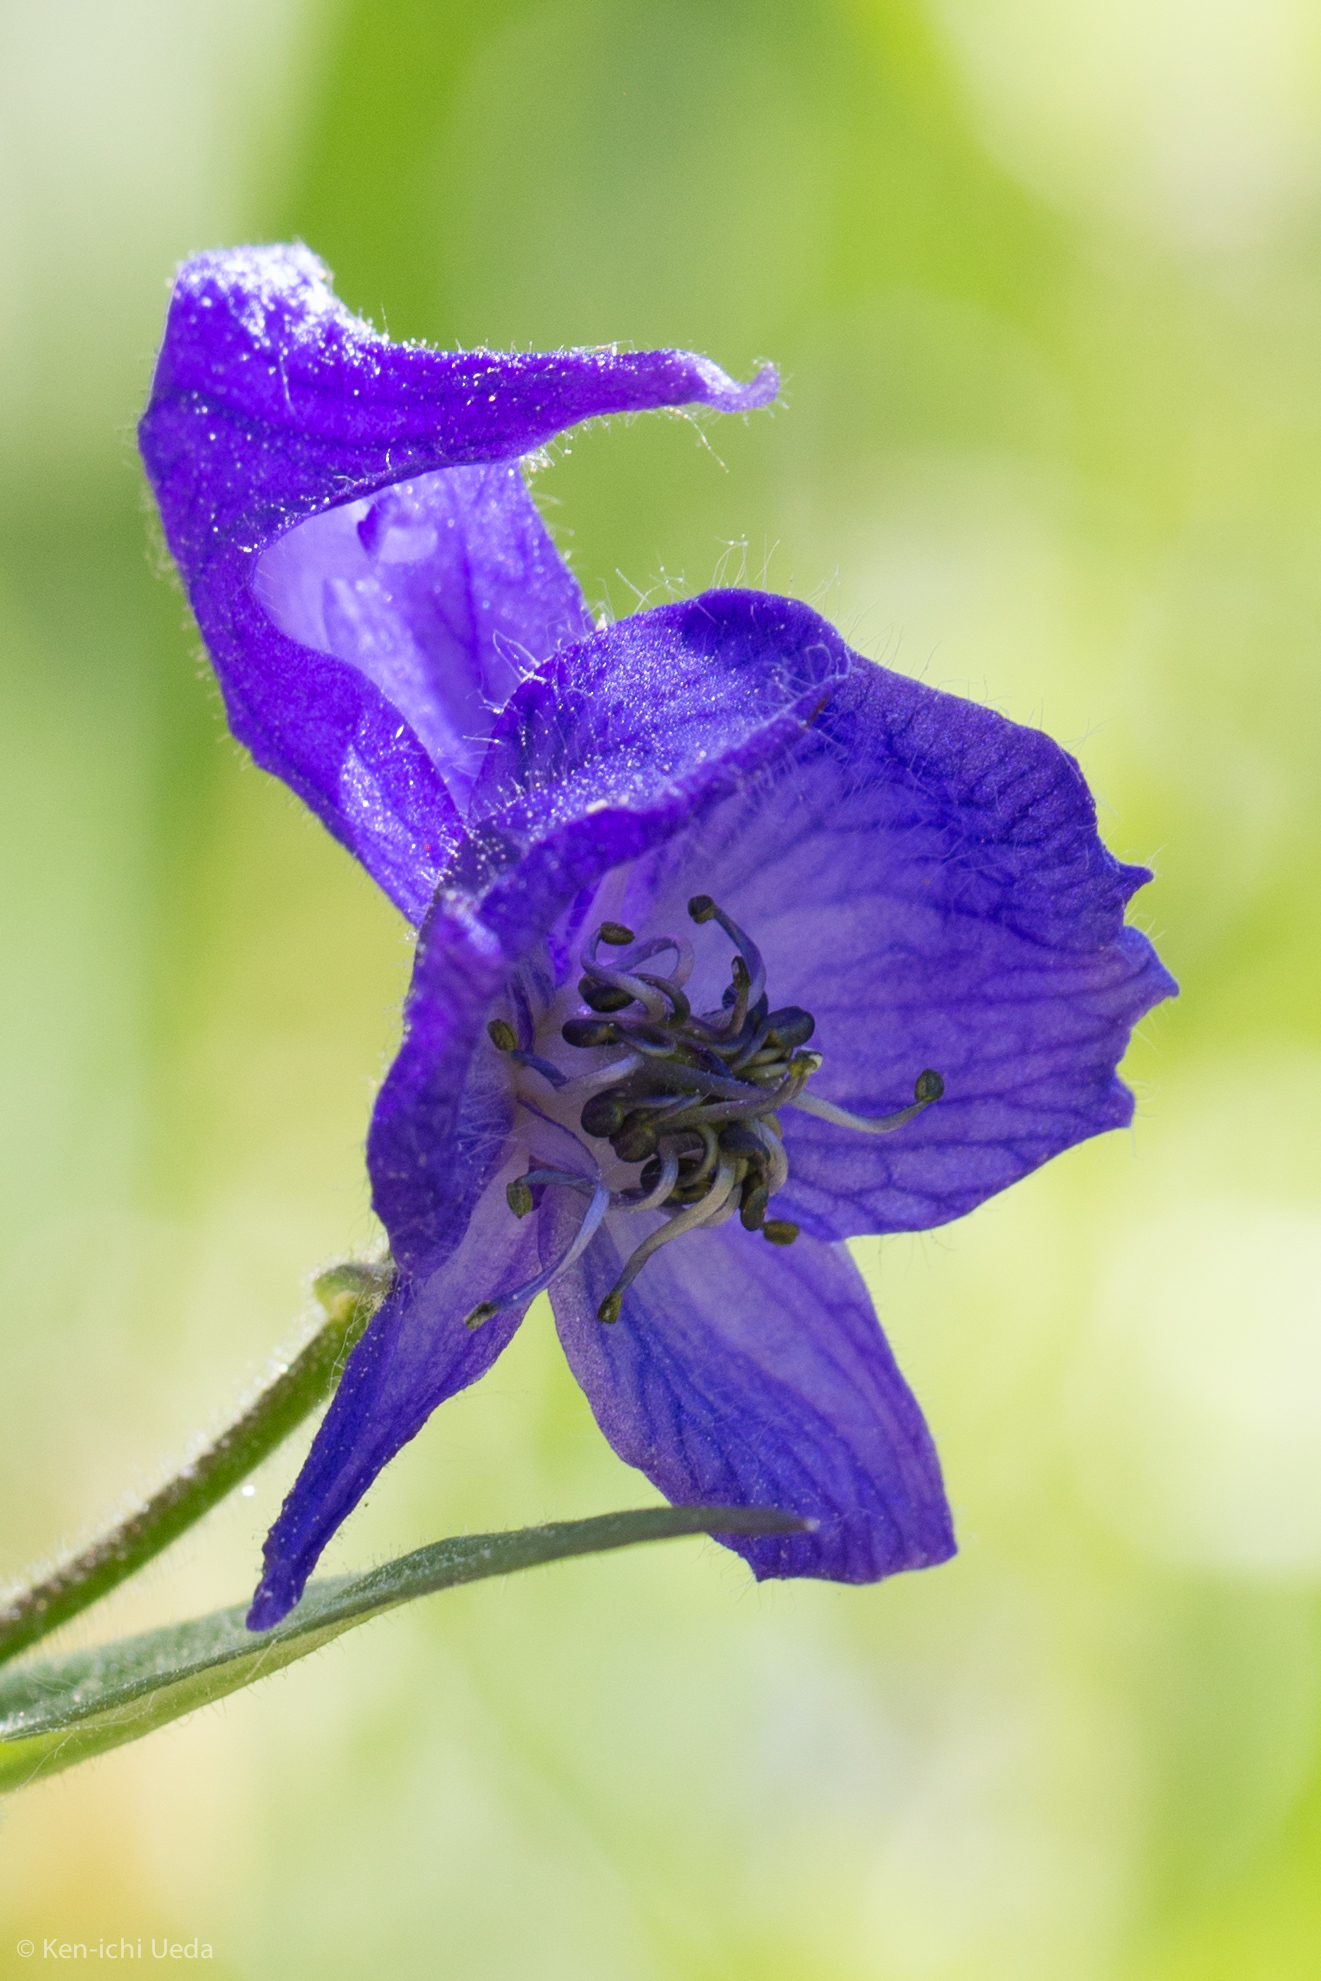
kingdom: Plantae
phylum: Tracheophyta
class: Magnoliopsida
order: Ranunculales
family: Ranunculaceae
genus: Aconitum
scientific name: Aconitum columbianum
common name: Columbia aconite
